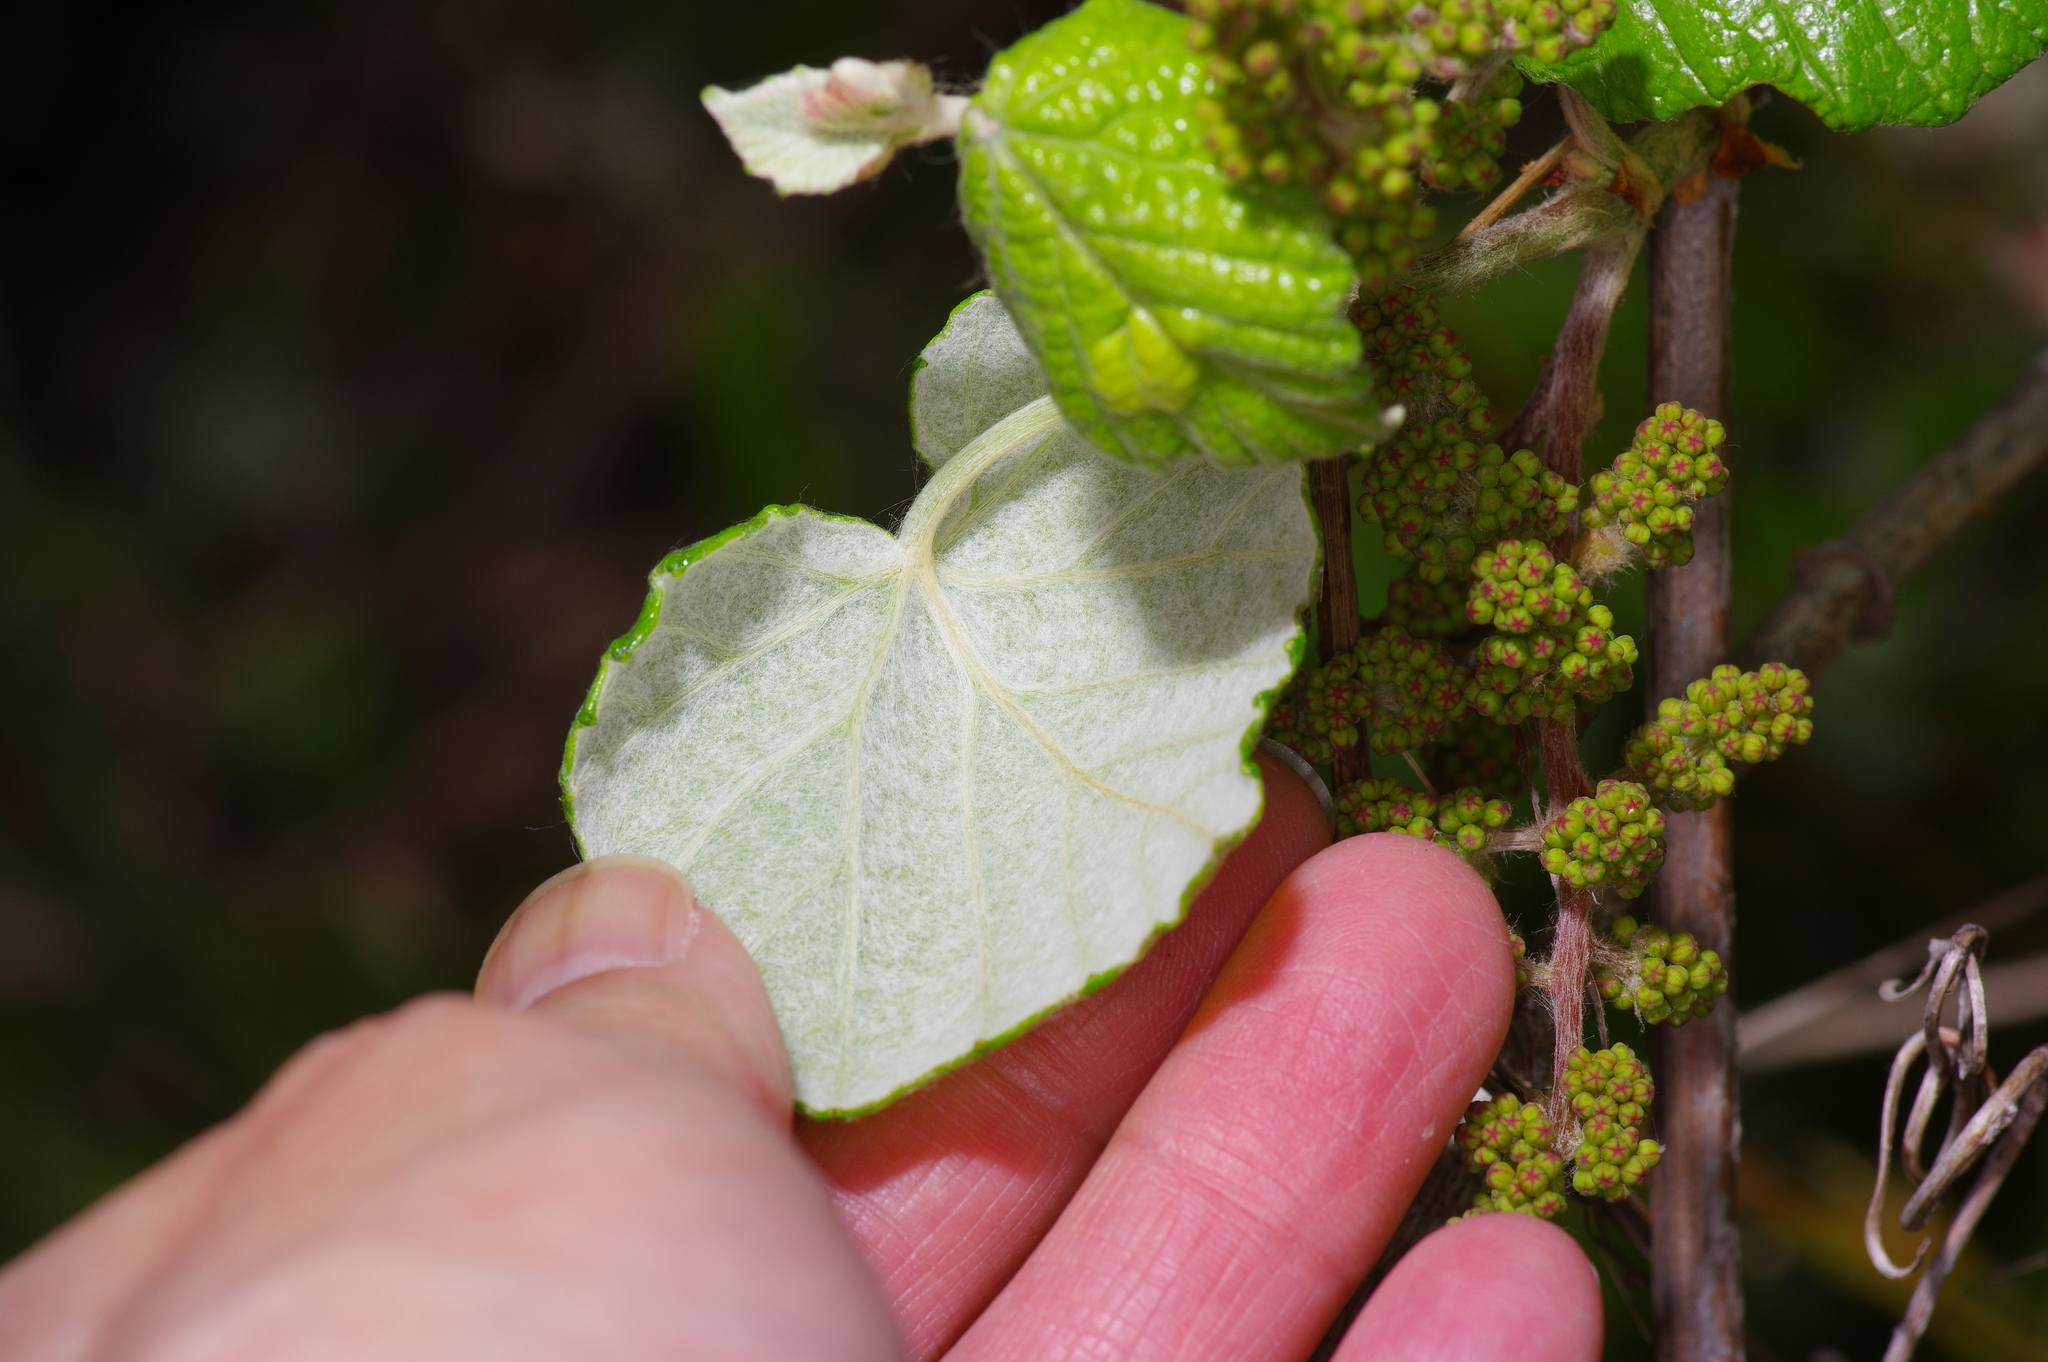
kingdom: Plantae
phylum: Tracheophyta
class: Magnoliopsida
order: Vitales
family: Vitaceae
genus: Vitis
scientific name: Vitis mustangensis
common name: Mustang grape
